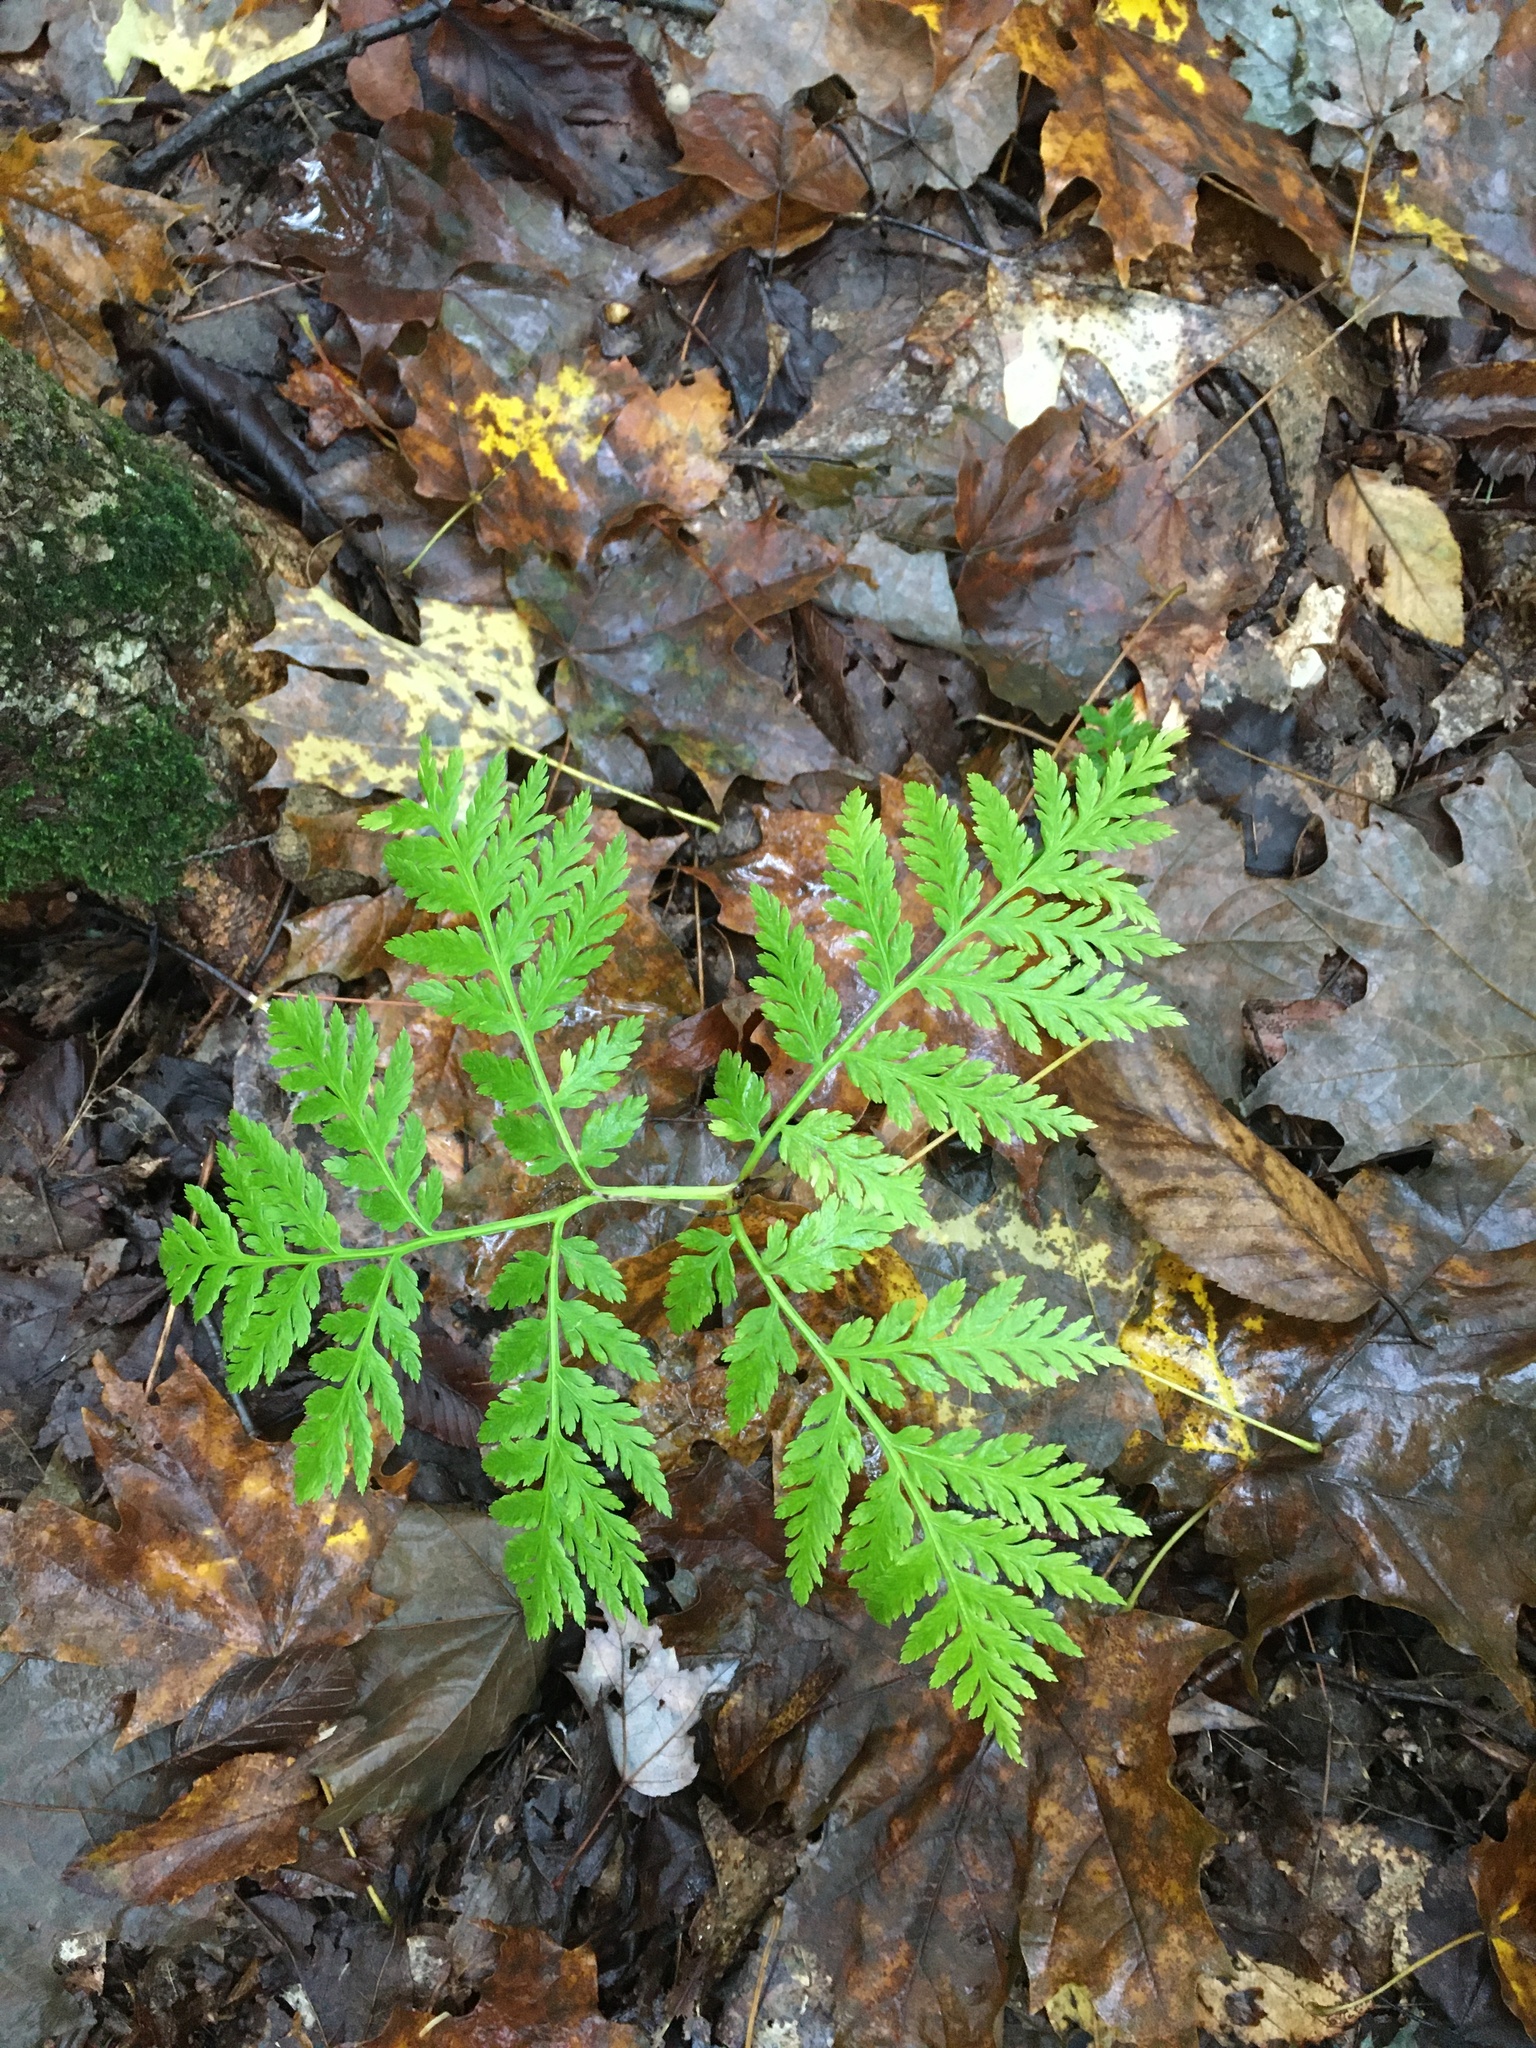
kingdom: Plantae
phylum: Tracheophyta
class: Polypodiopsida
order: Ophioglossales
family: Ophioglossaceae
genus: Botrypus
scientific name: Botrypus virginianus
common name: Common grapefern
